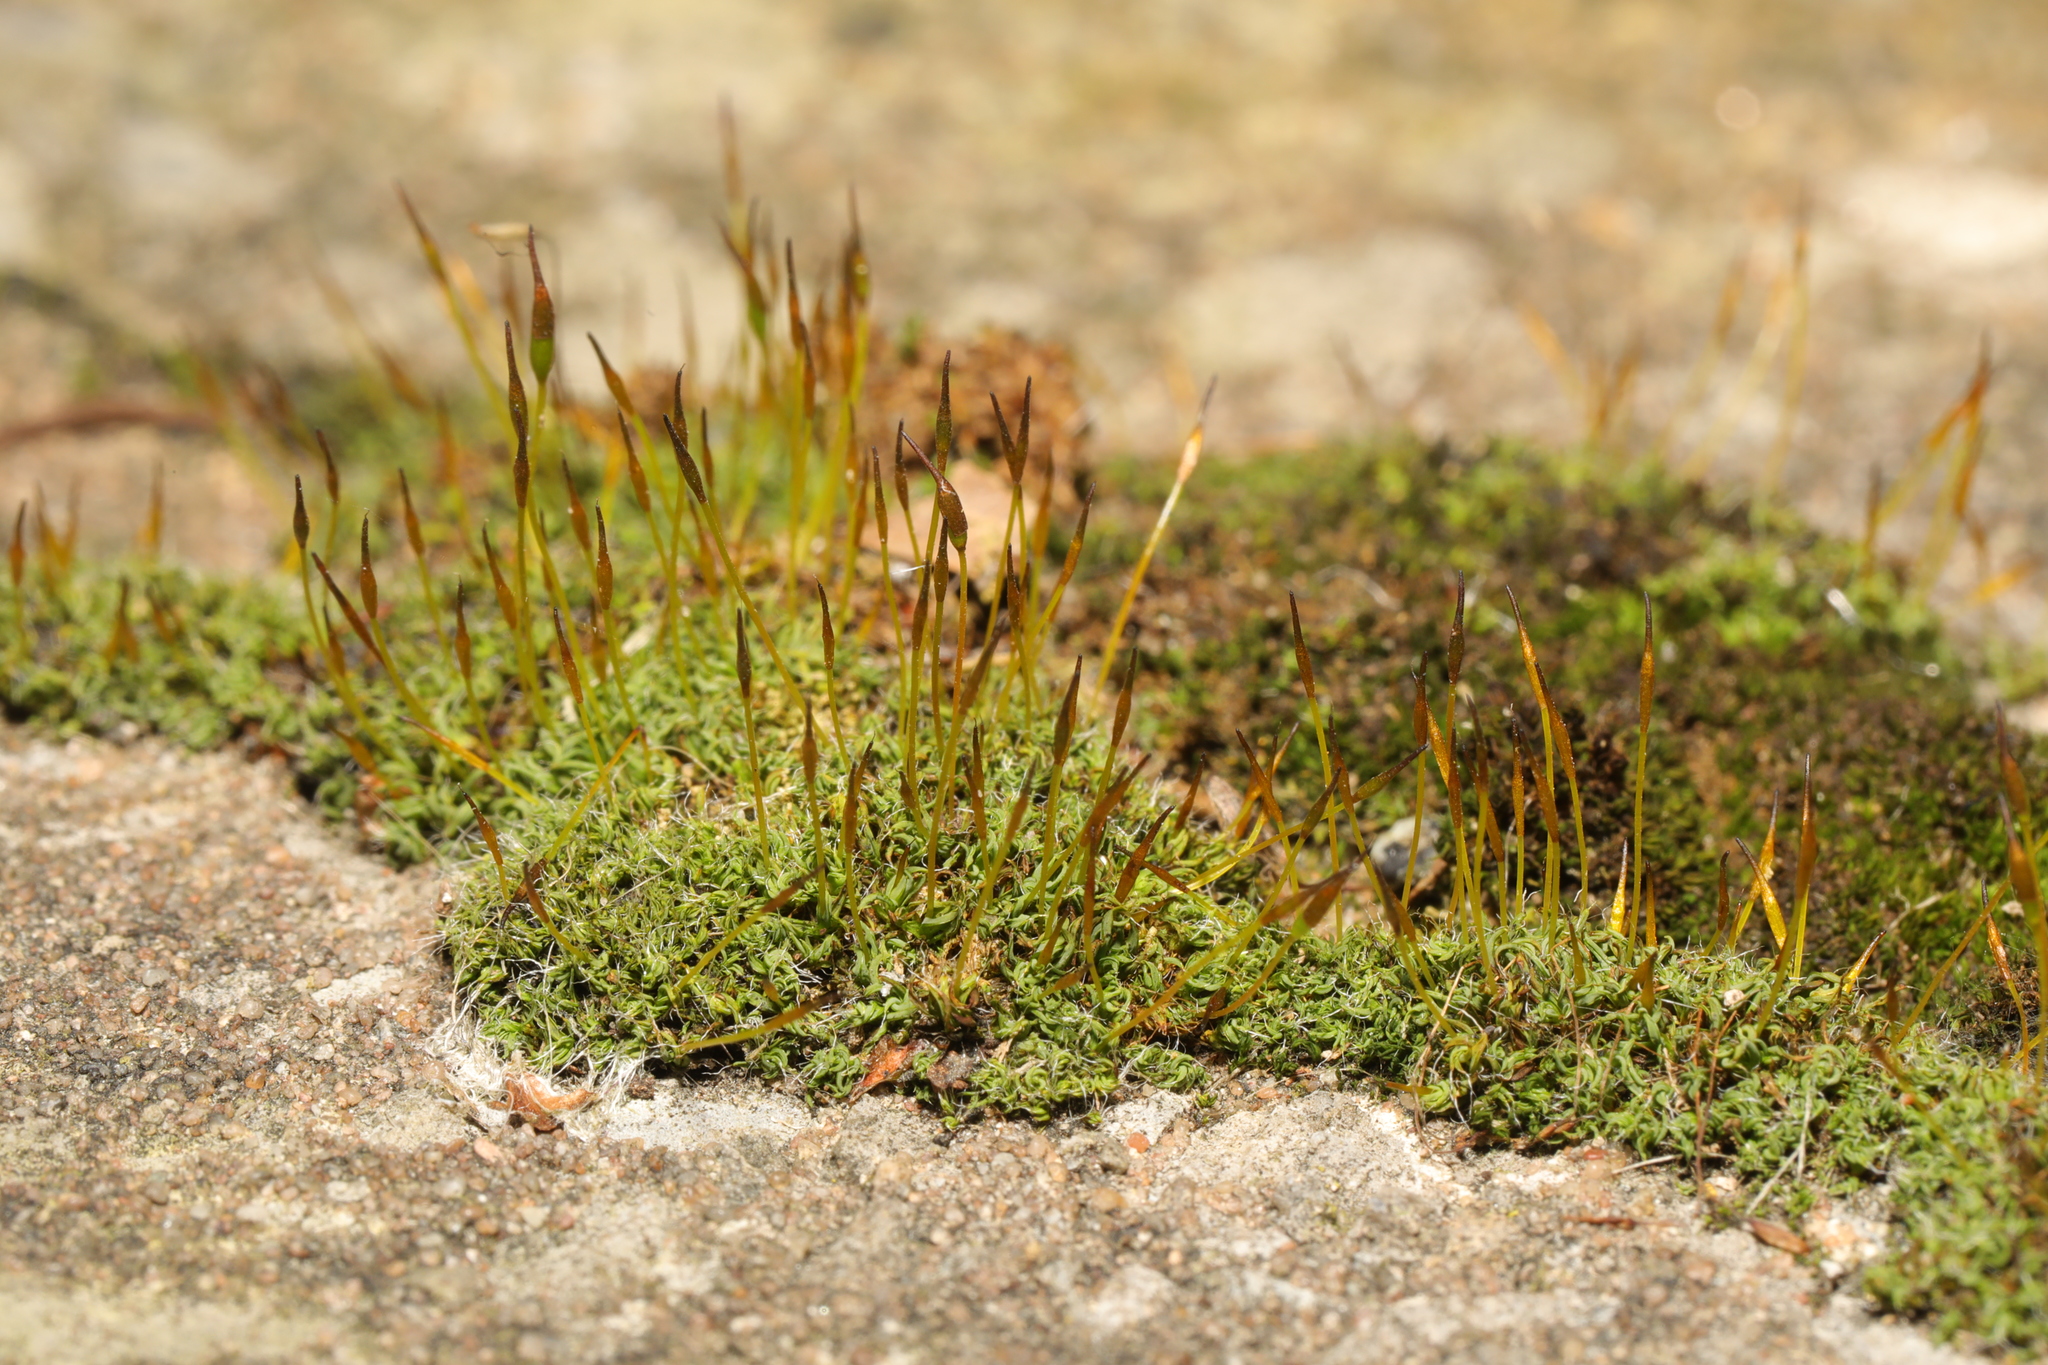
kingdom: Plantae
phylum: Bryophyta
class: Bryopsida
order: Pottiales
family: Pottiaceae
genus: Tortula
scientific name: Tortula muralis
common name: Wall screw-moss
